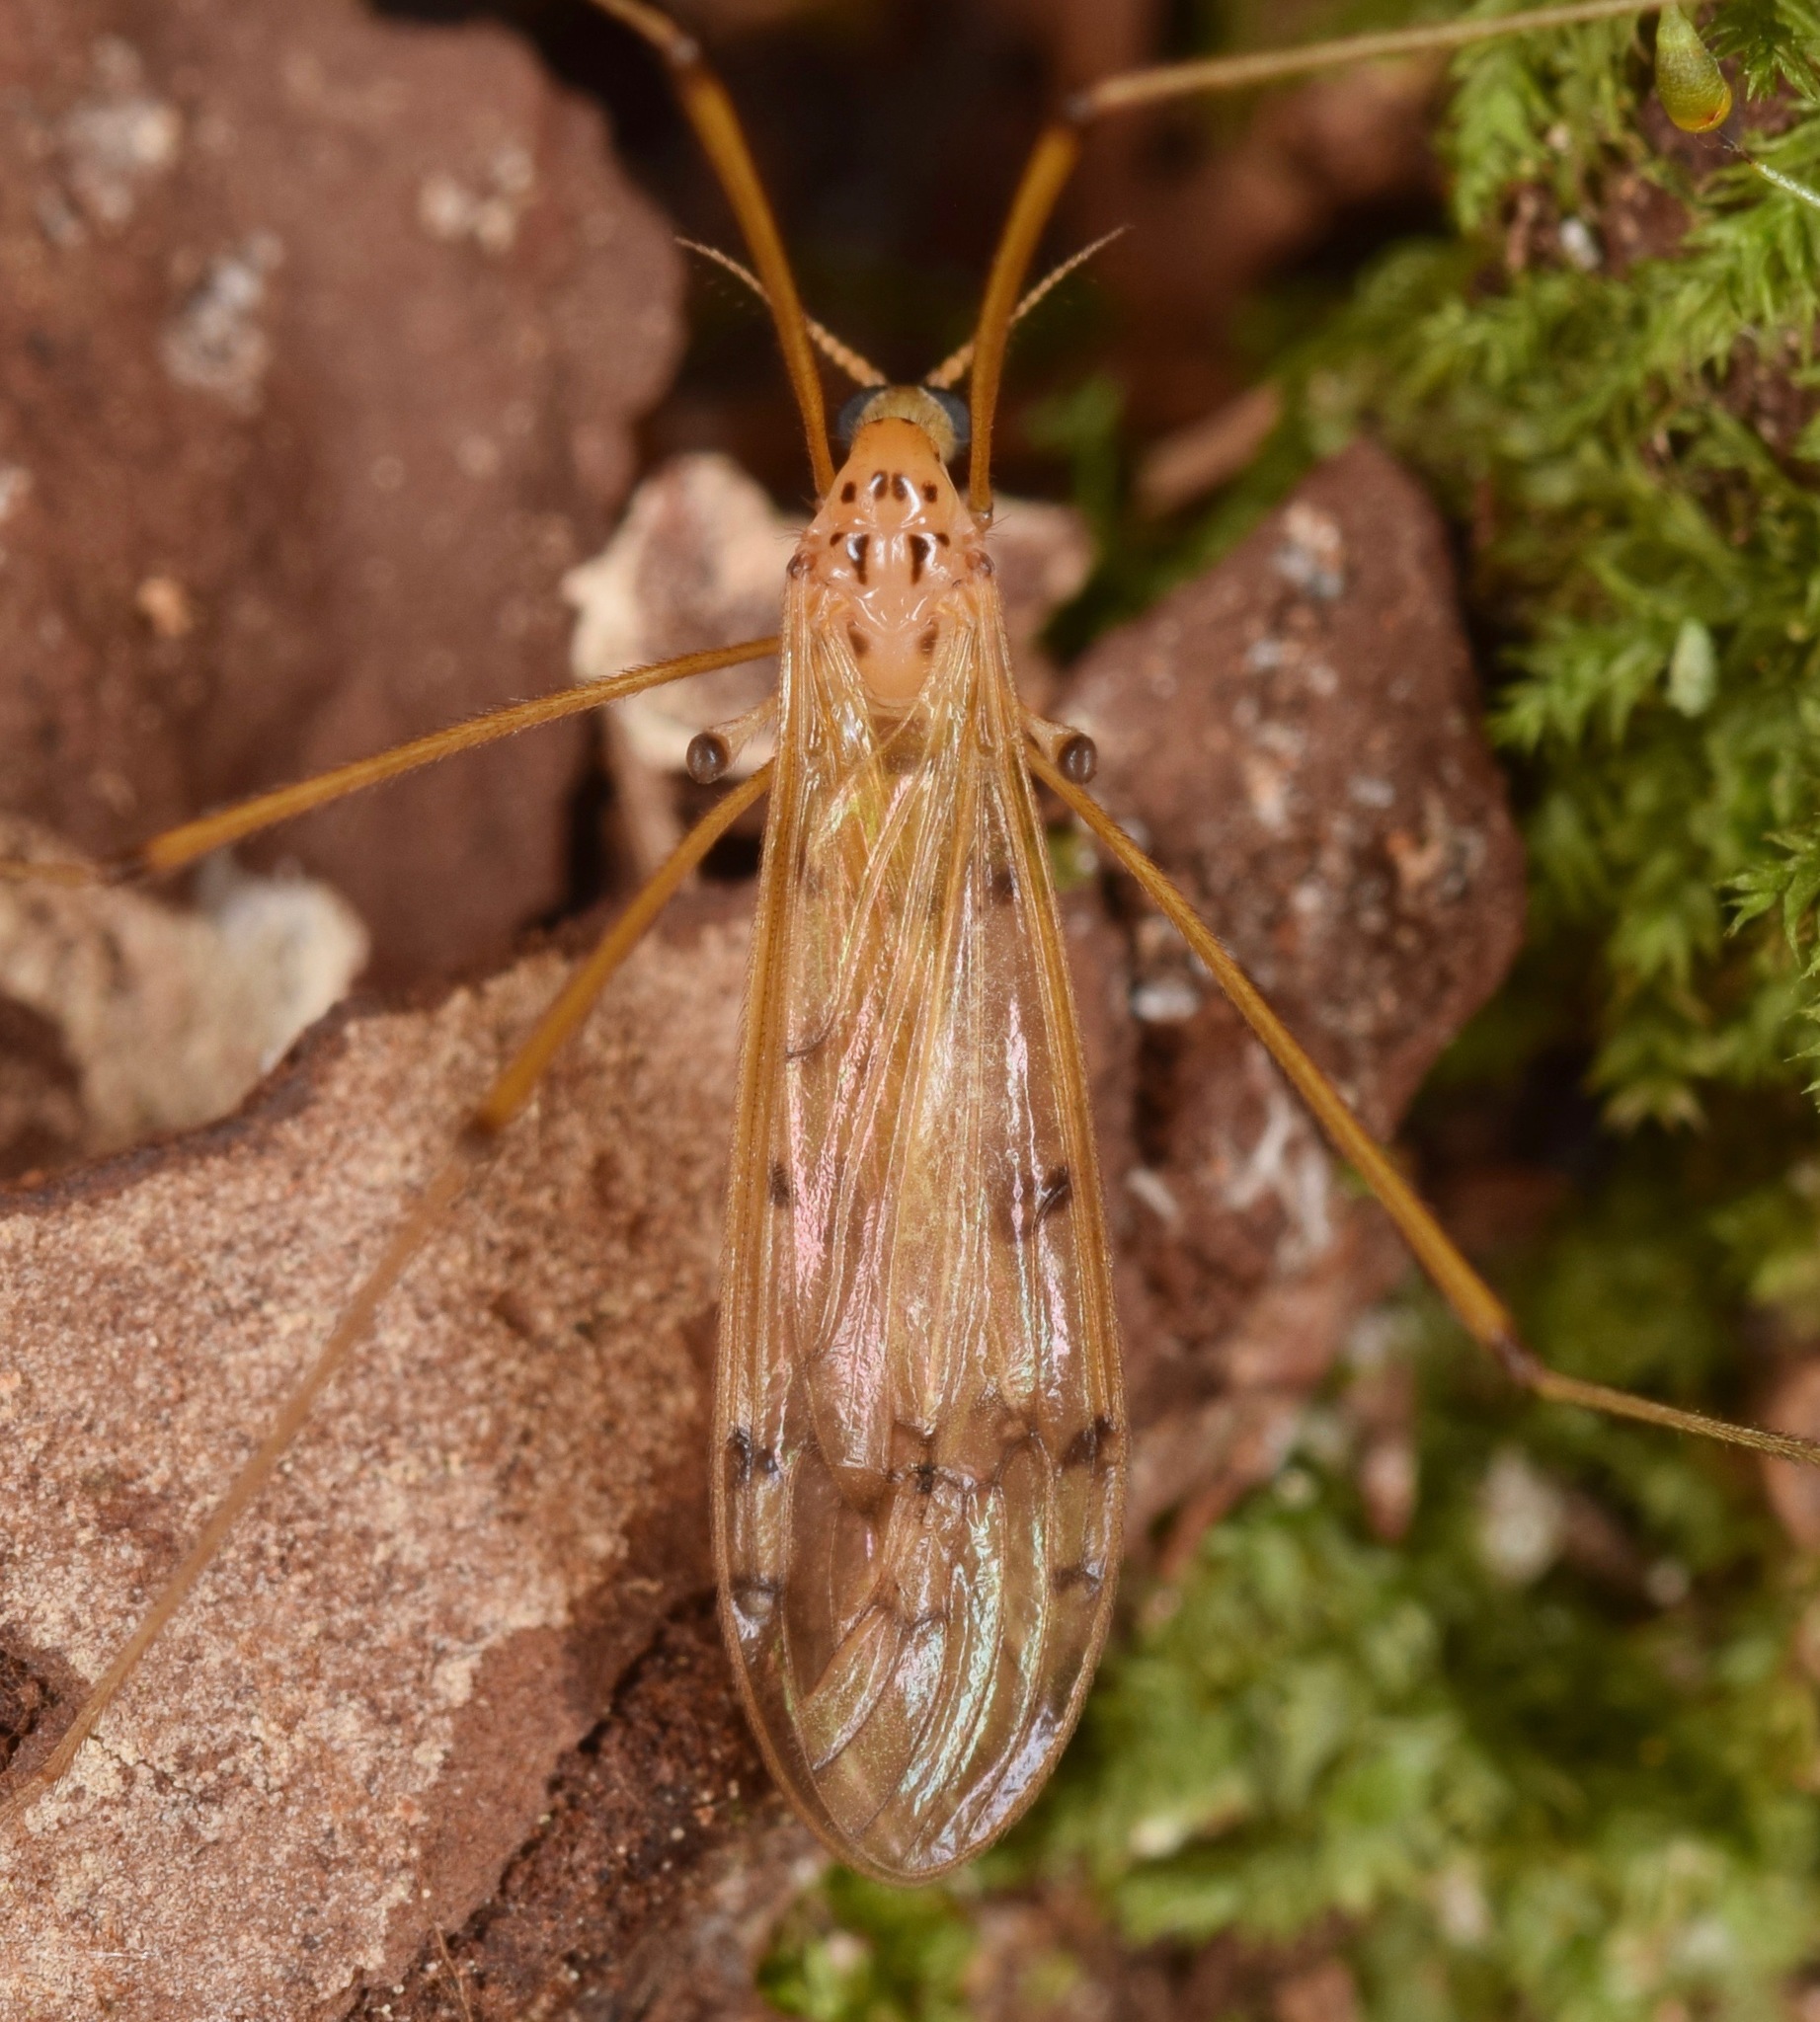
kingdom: Animalia
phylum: Arthropoda
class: Insecta
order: Diptera
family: Limoniidae
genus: Metalimnobia
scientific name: Metalimnobia triocellata
